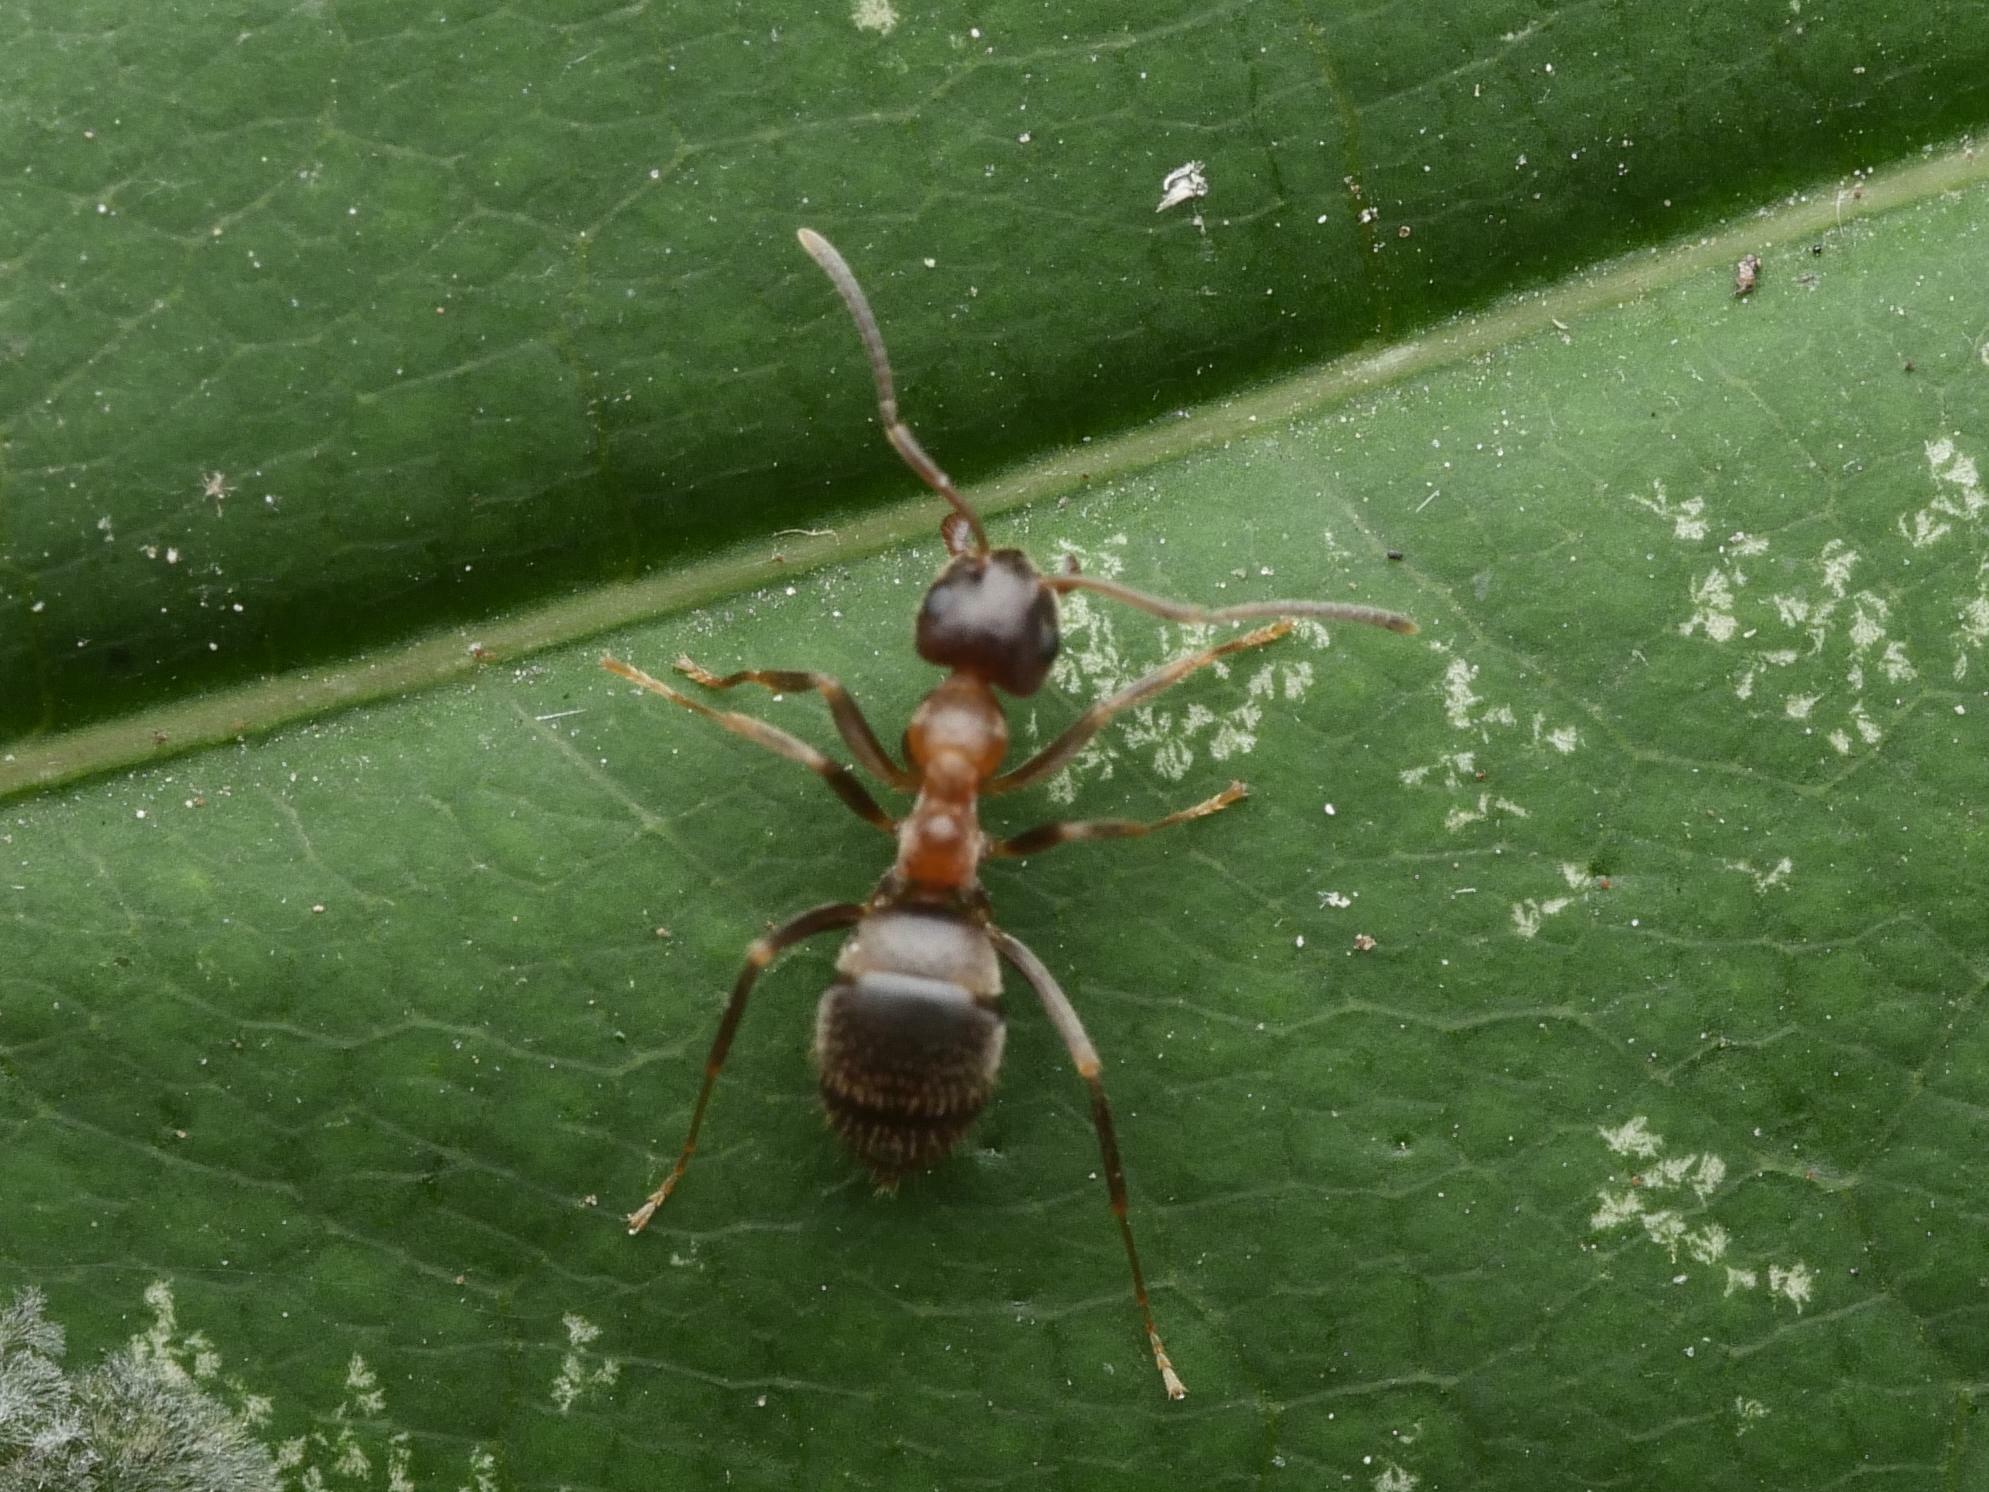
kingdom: Animalia
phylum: Arthropoda
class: Insecta
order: Hymenoptera
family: Formicidae
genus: Lasius
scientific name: Lasius emarginatus
